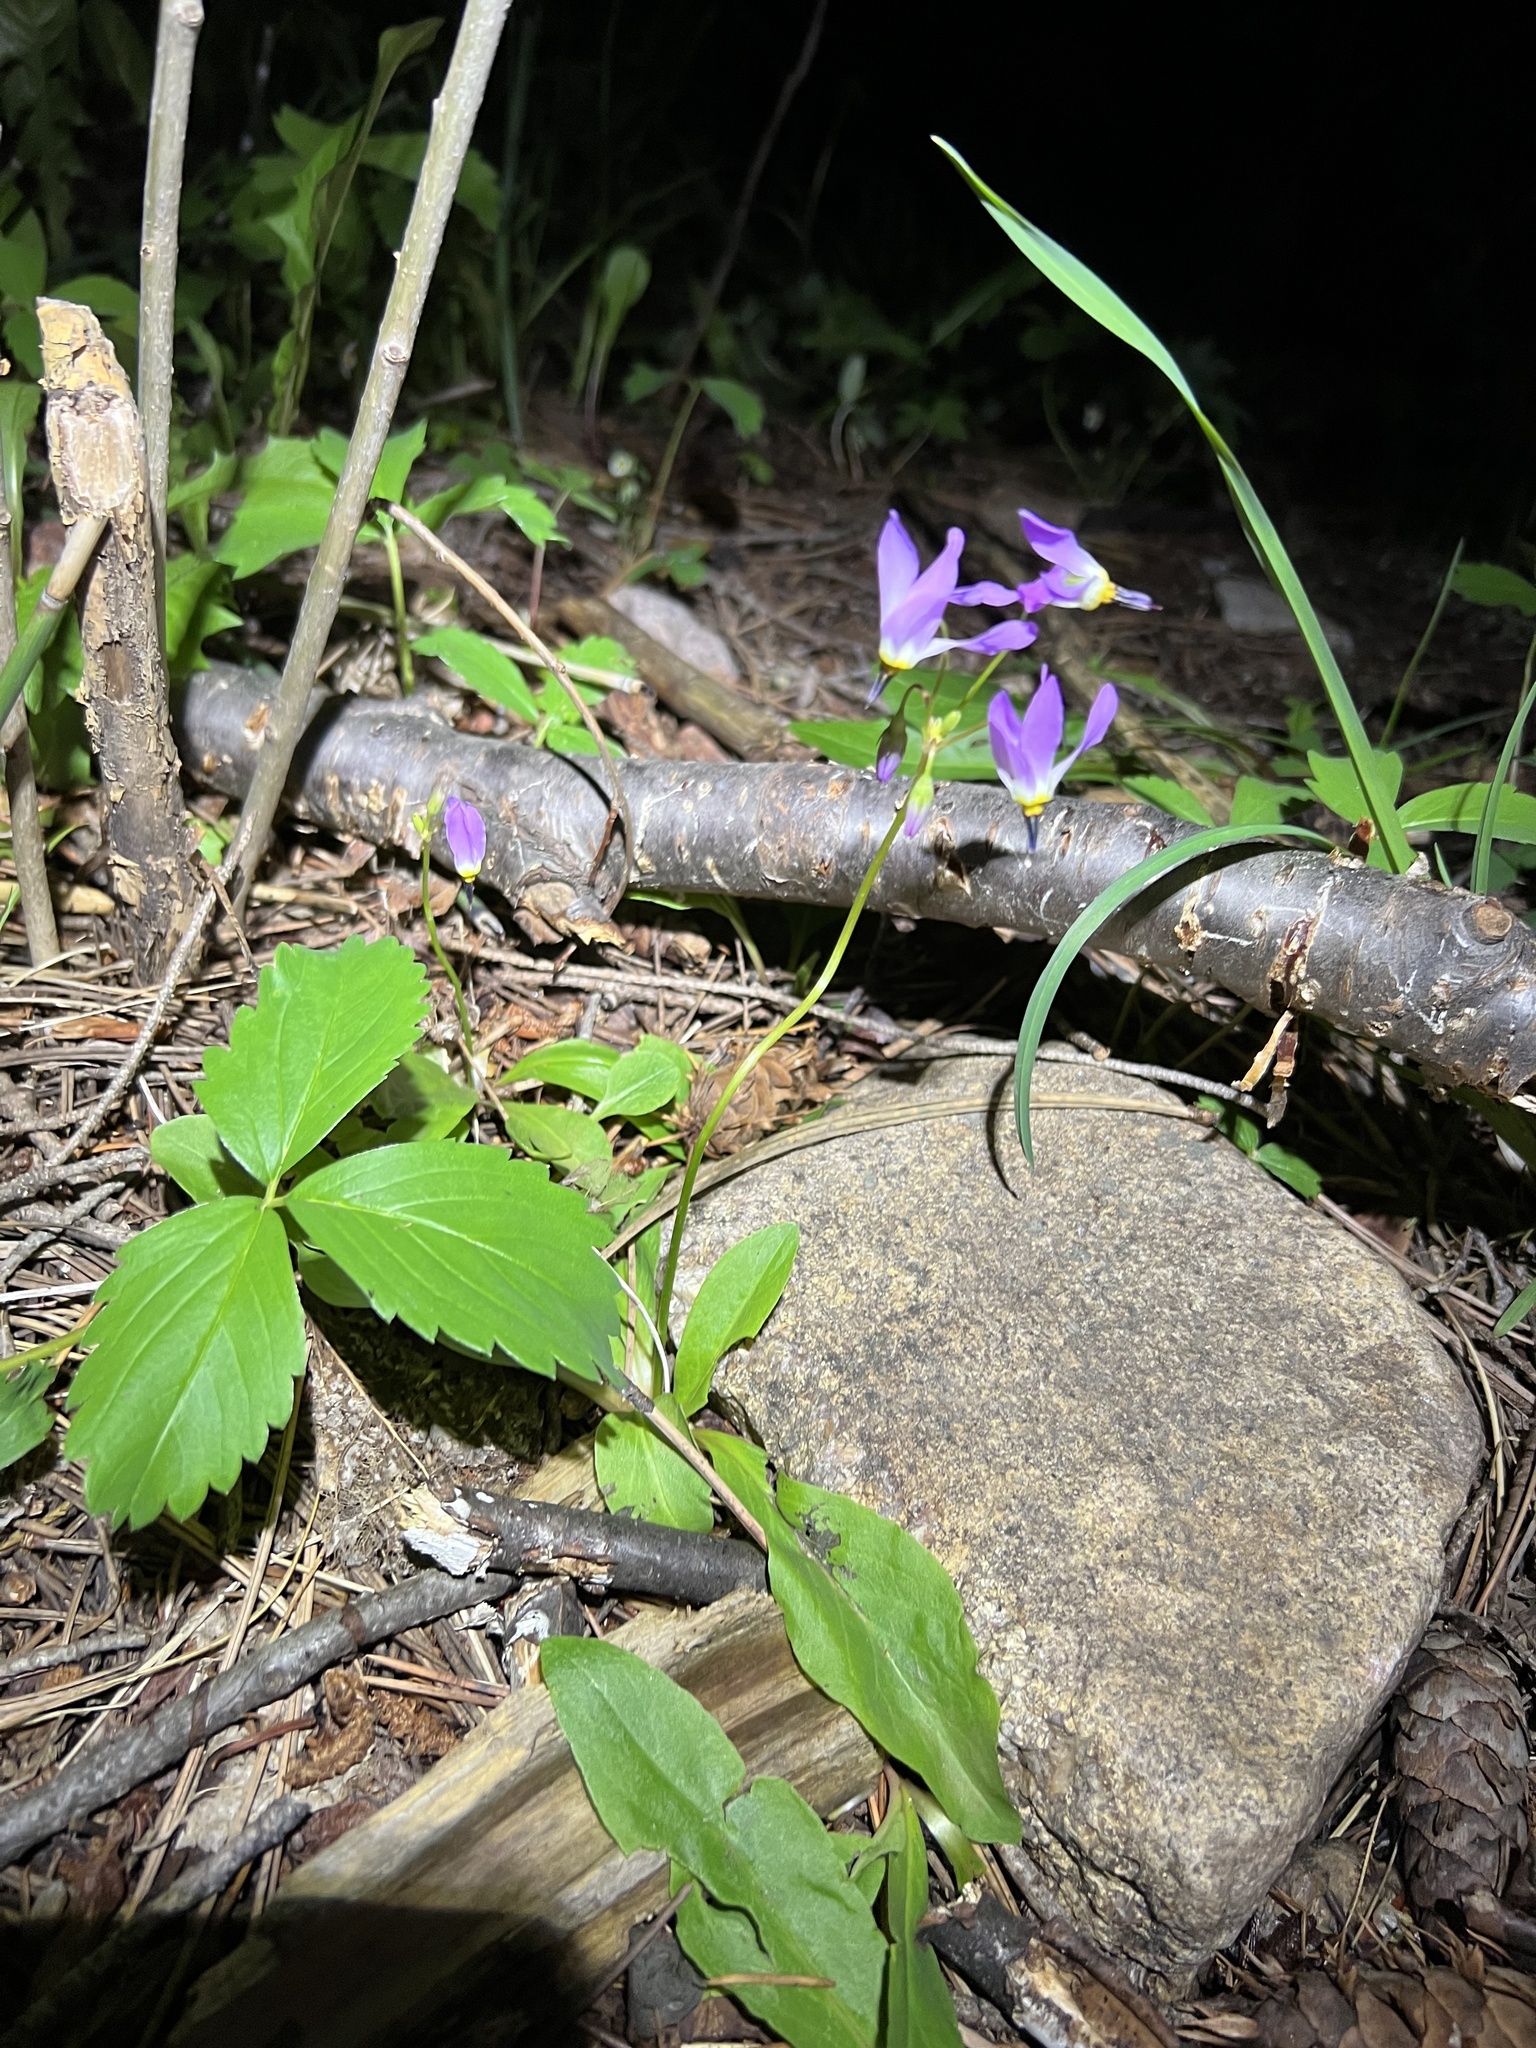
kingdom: Plantae
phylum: Tracheophyta
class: Magnoliopsida
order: Ericales
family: Primulaceae
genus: Dodecatheon
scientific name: Dodecatheon pulchellum
